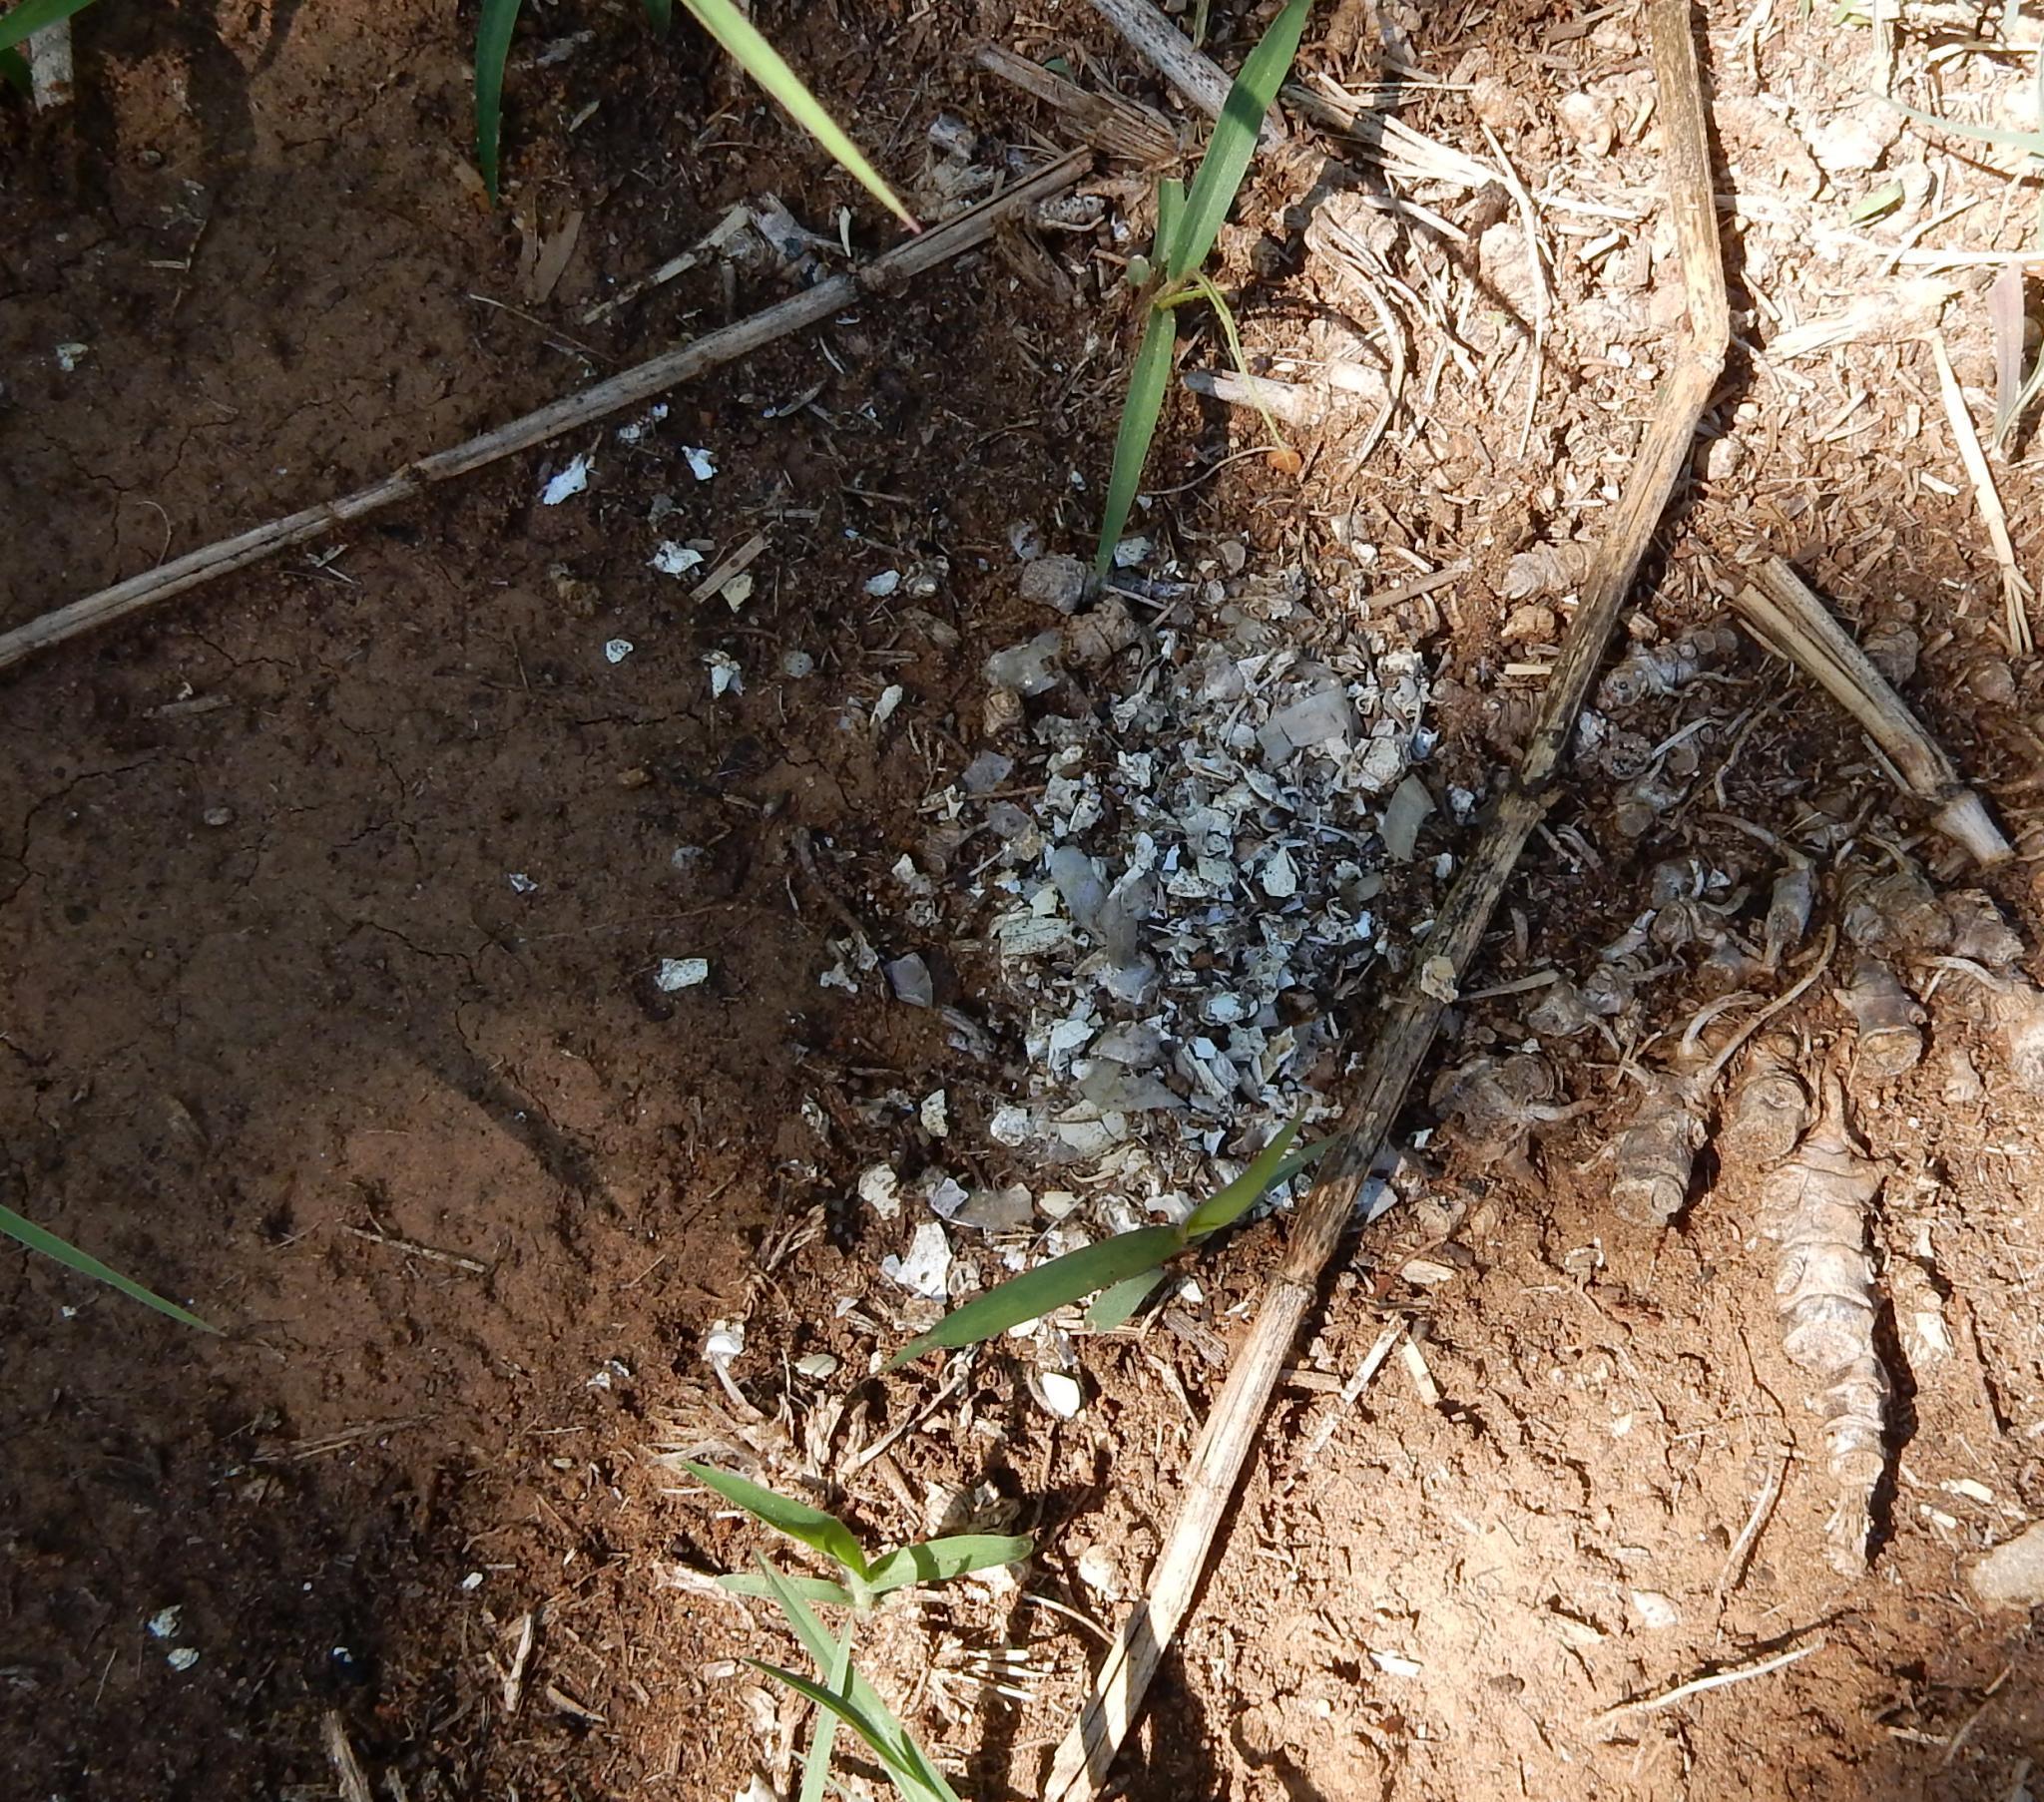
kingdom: Animalia
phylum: Chordata
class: Mammalia
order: Carnivora
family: Mustelidae
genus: Aonyx
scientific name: Aonyx capensis
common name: African clawless otter
